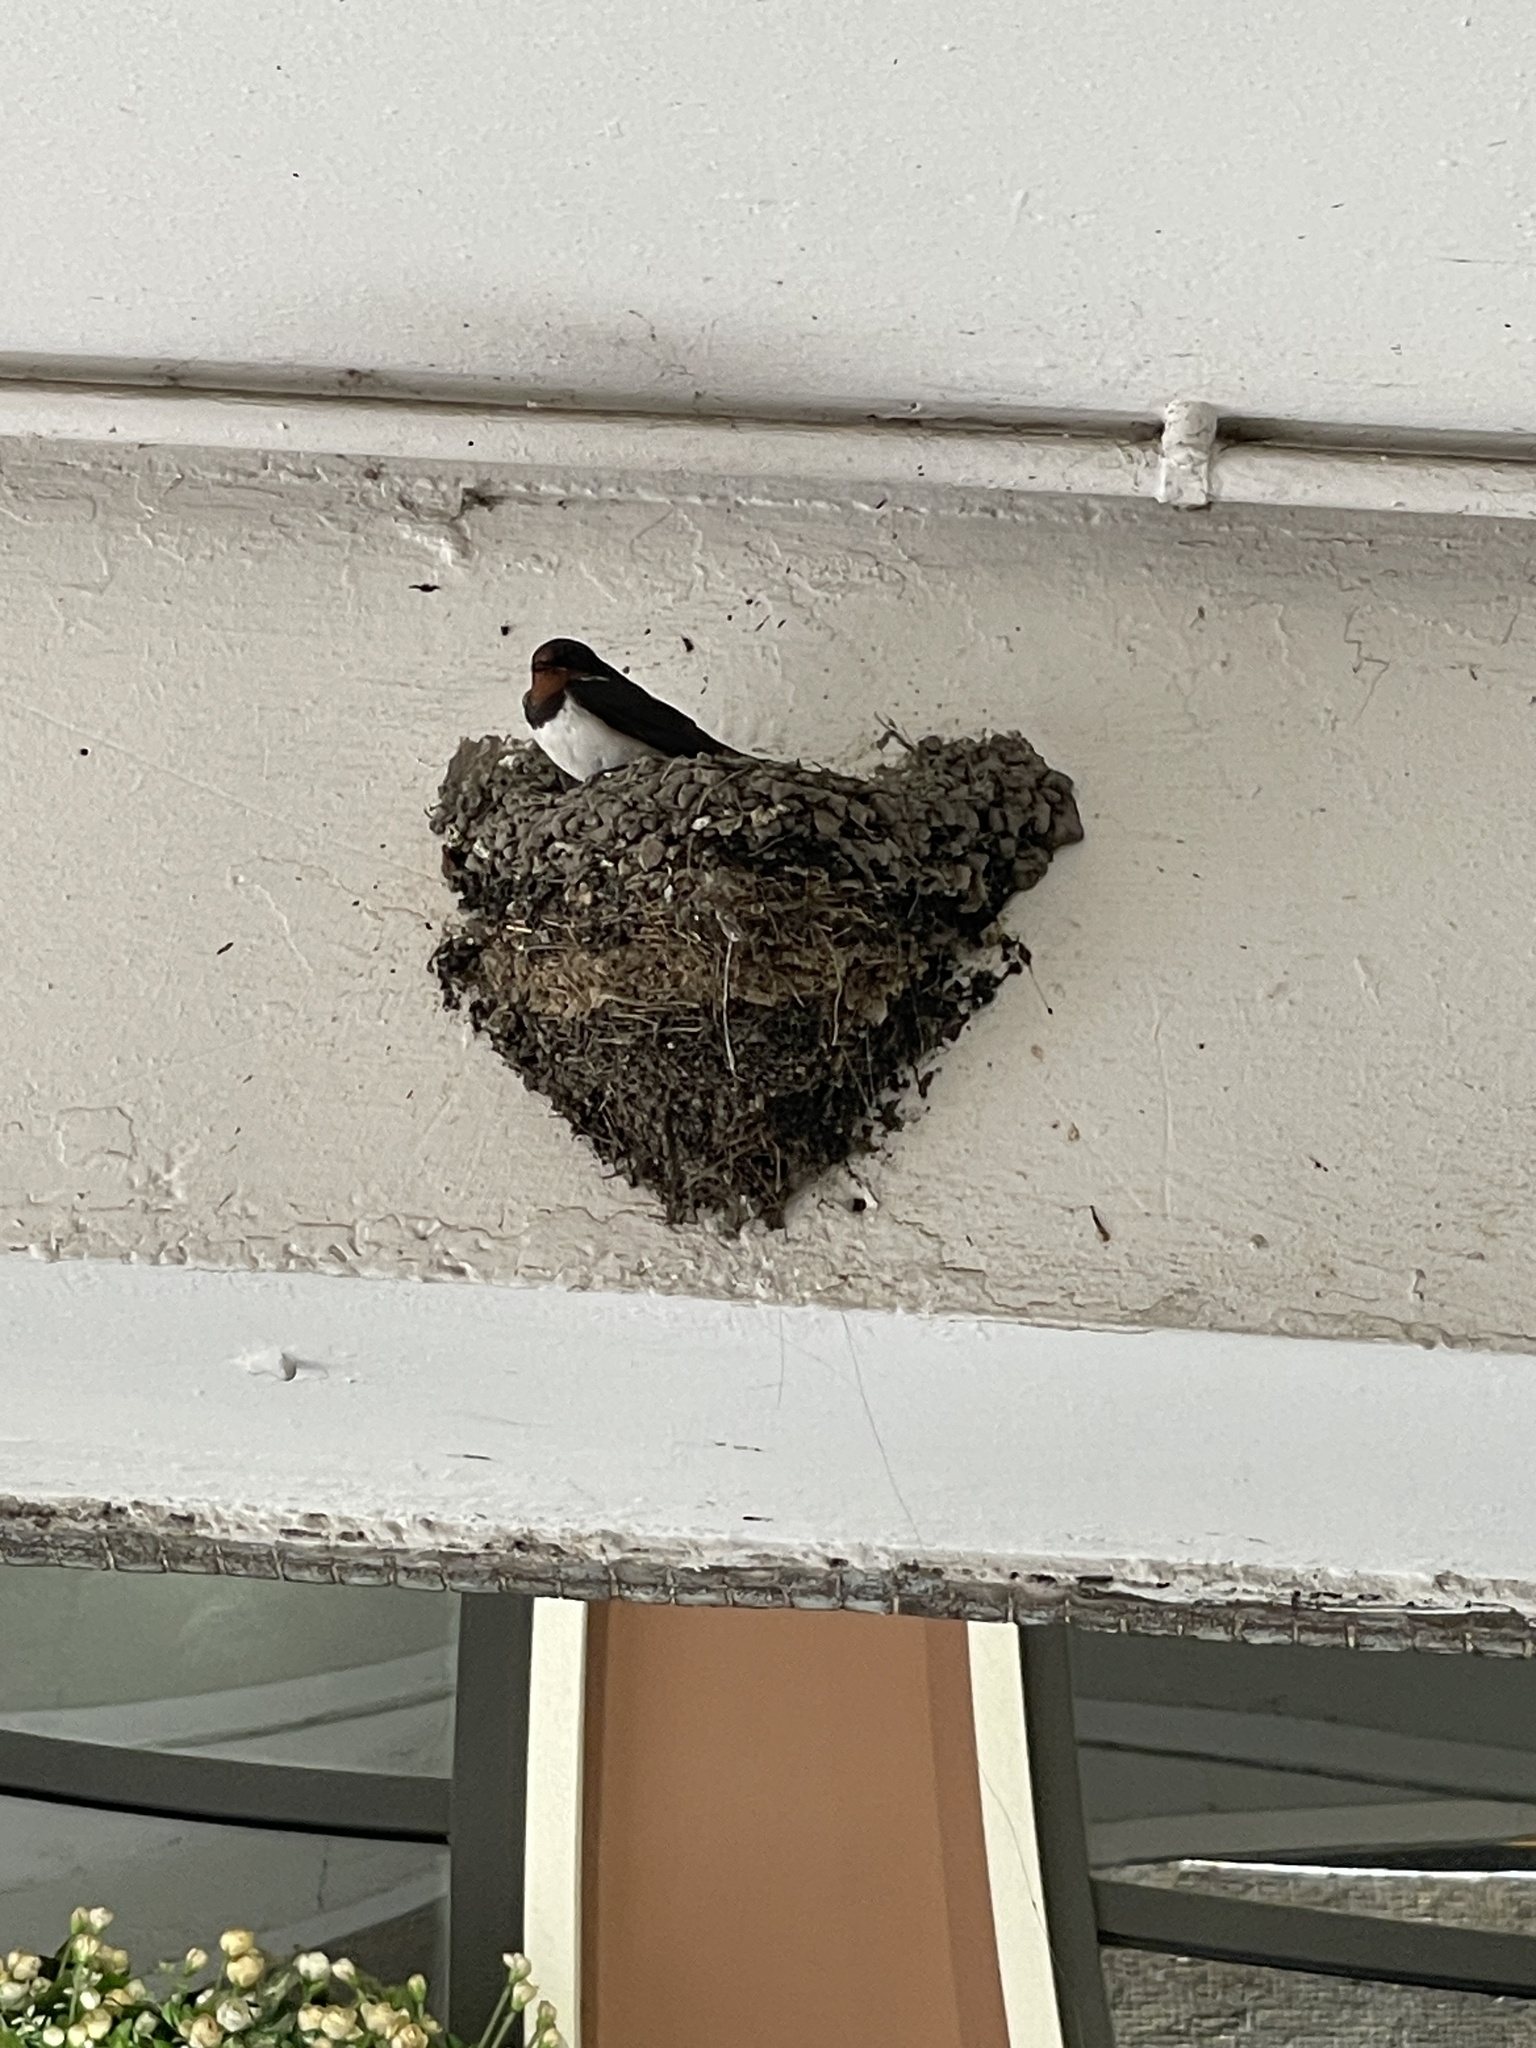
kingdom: Animalia
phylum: Chordata
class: Aves
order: Passeriformes
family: Hirundinidae
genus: Hirundo
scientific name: Hirundo rustica
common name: Barn swallow
